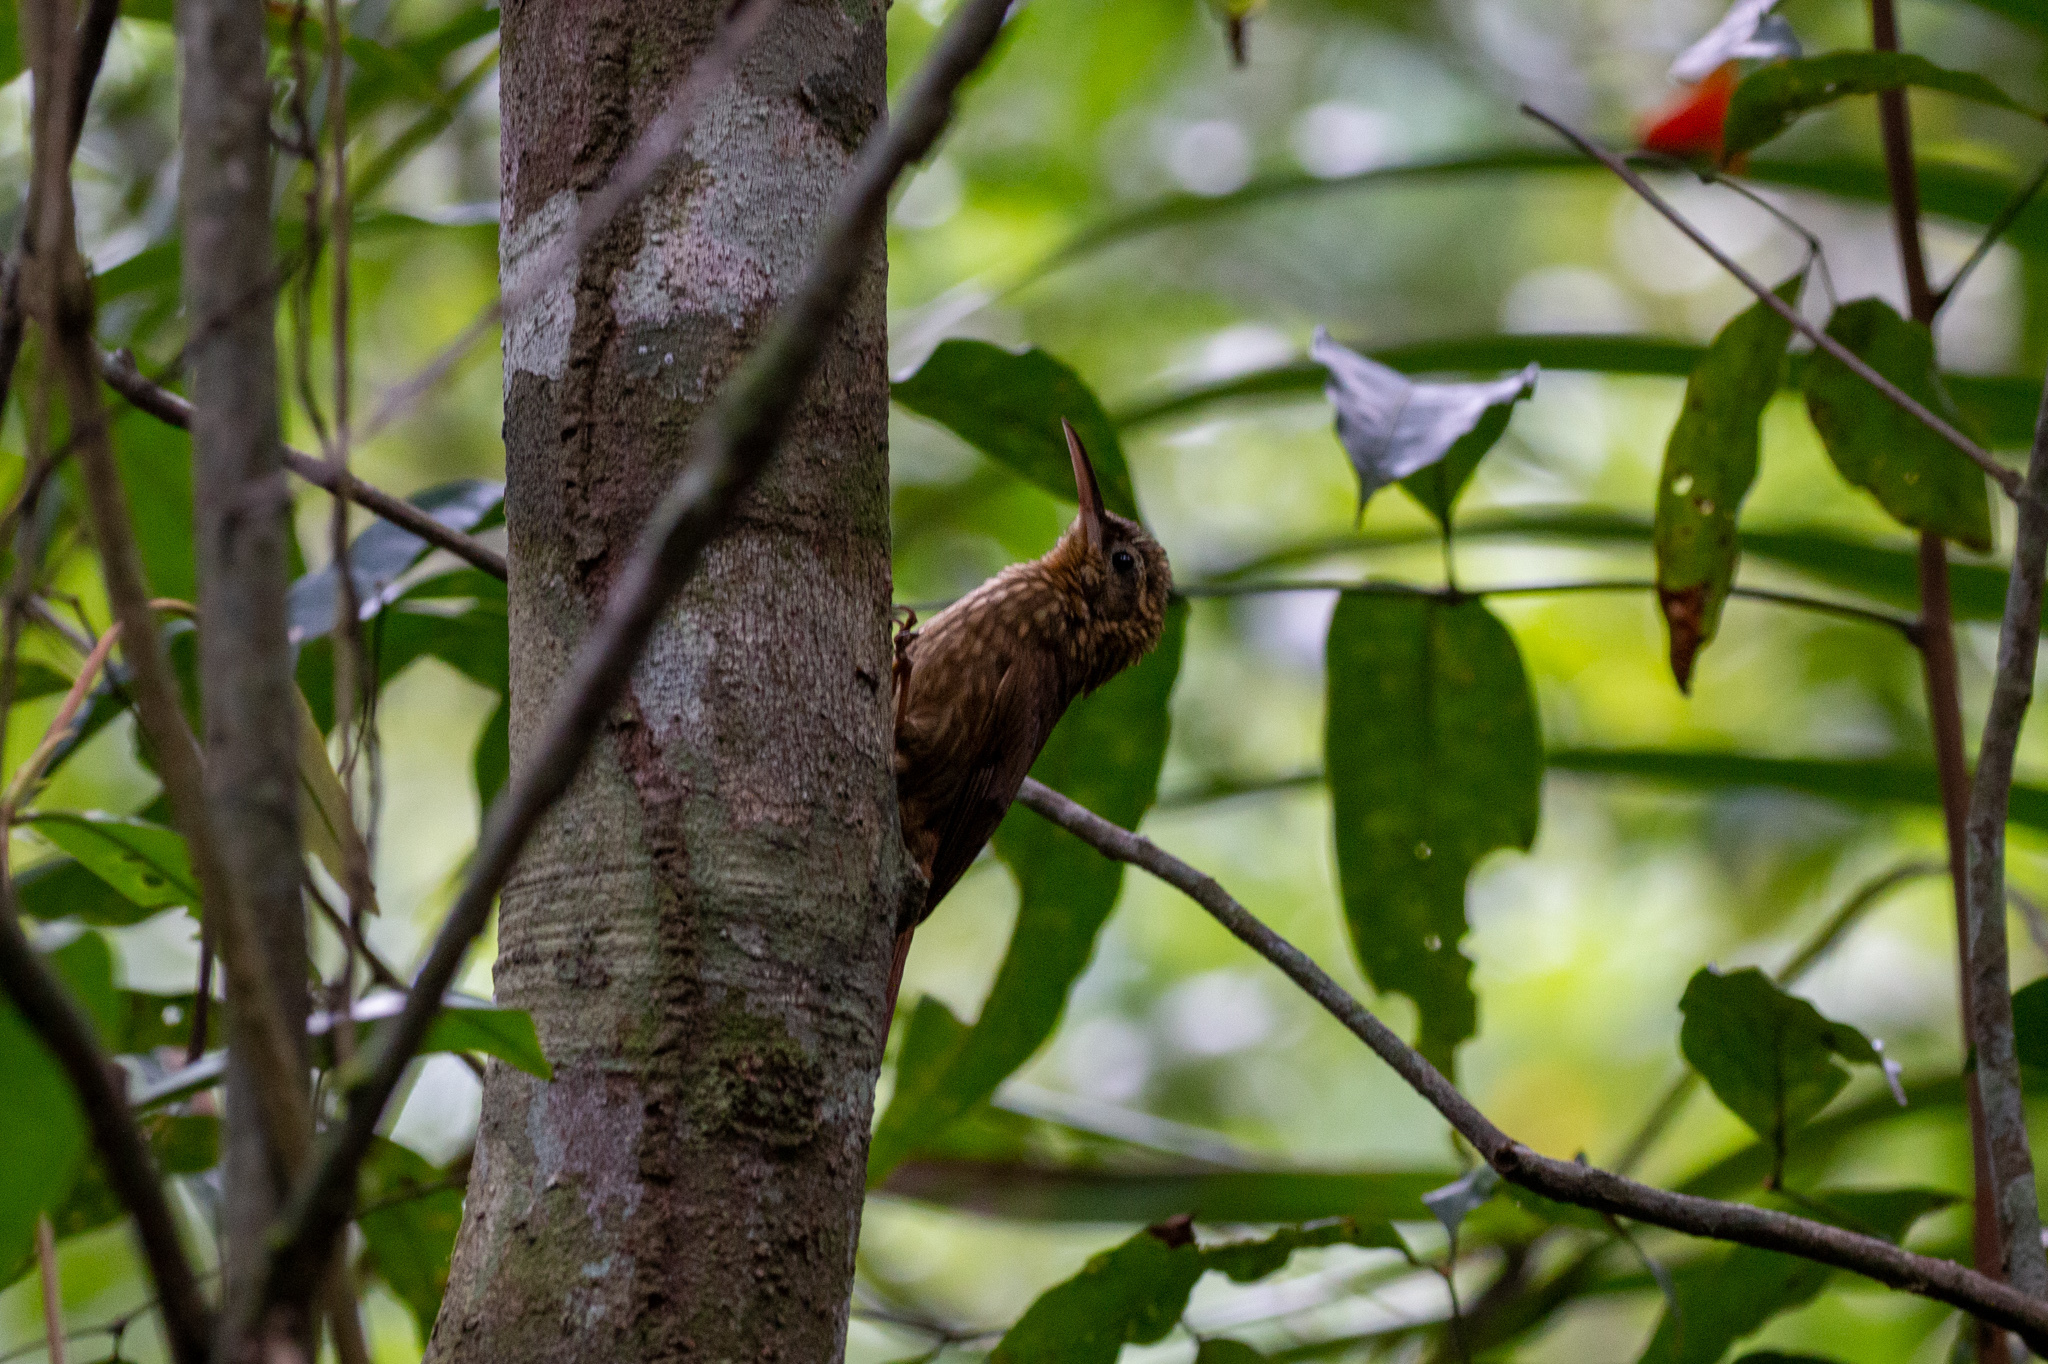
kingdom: Animalia
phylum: Chordata
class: Aves
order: Passeriformes
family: Furnariidae
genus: Xiphorhynchus
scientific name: Xiphorhynchus fuscus
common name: Lesser woodcreeper
